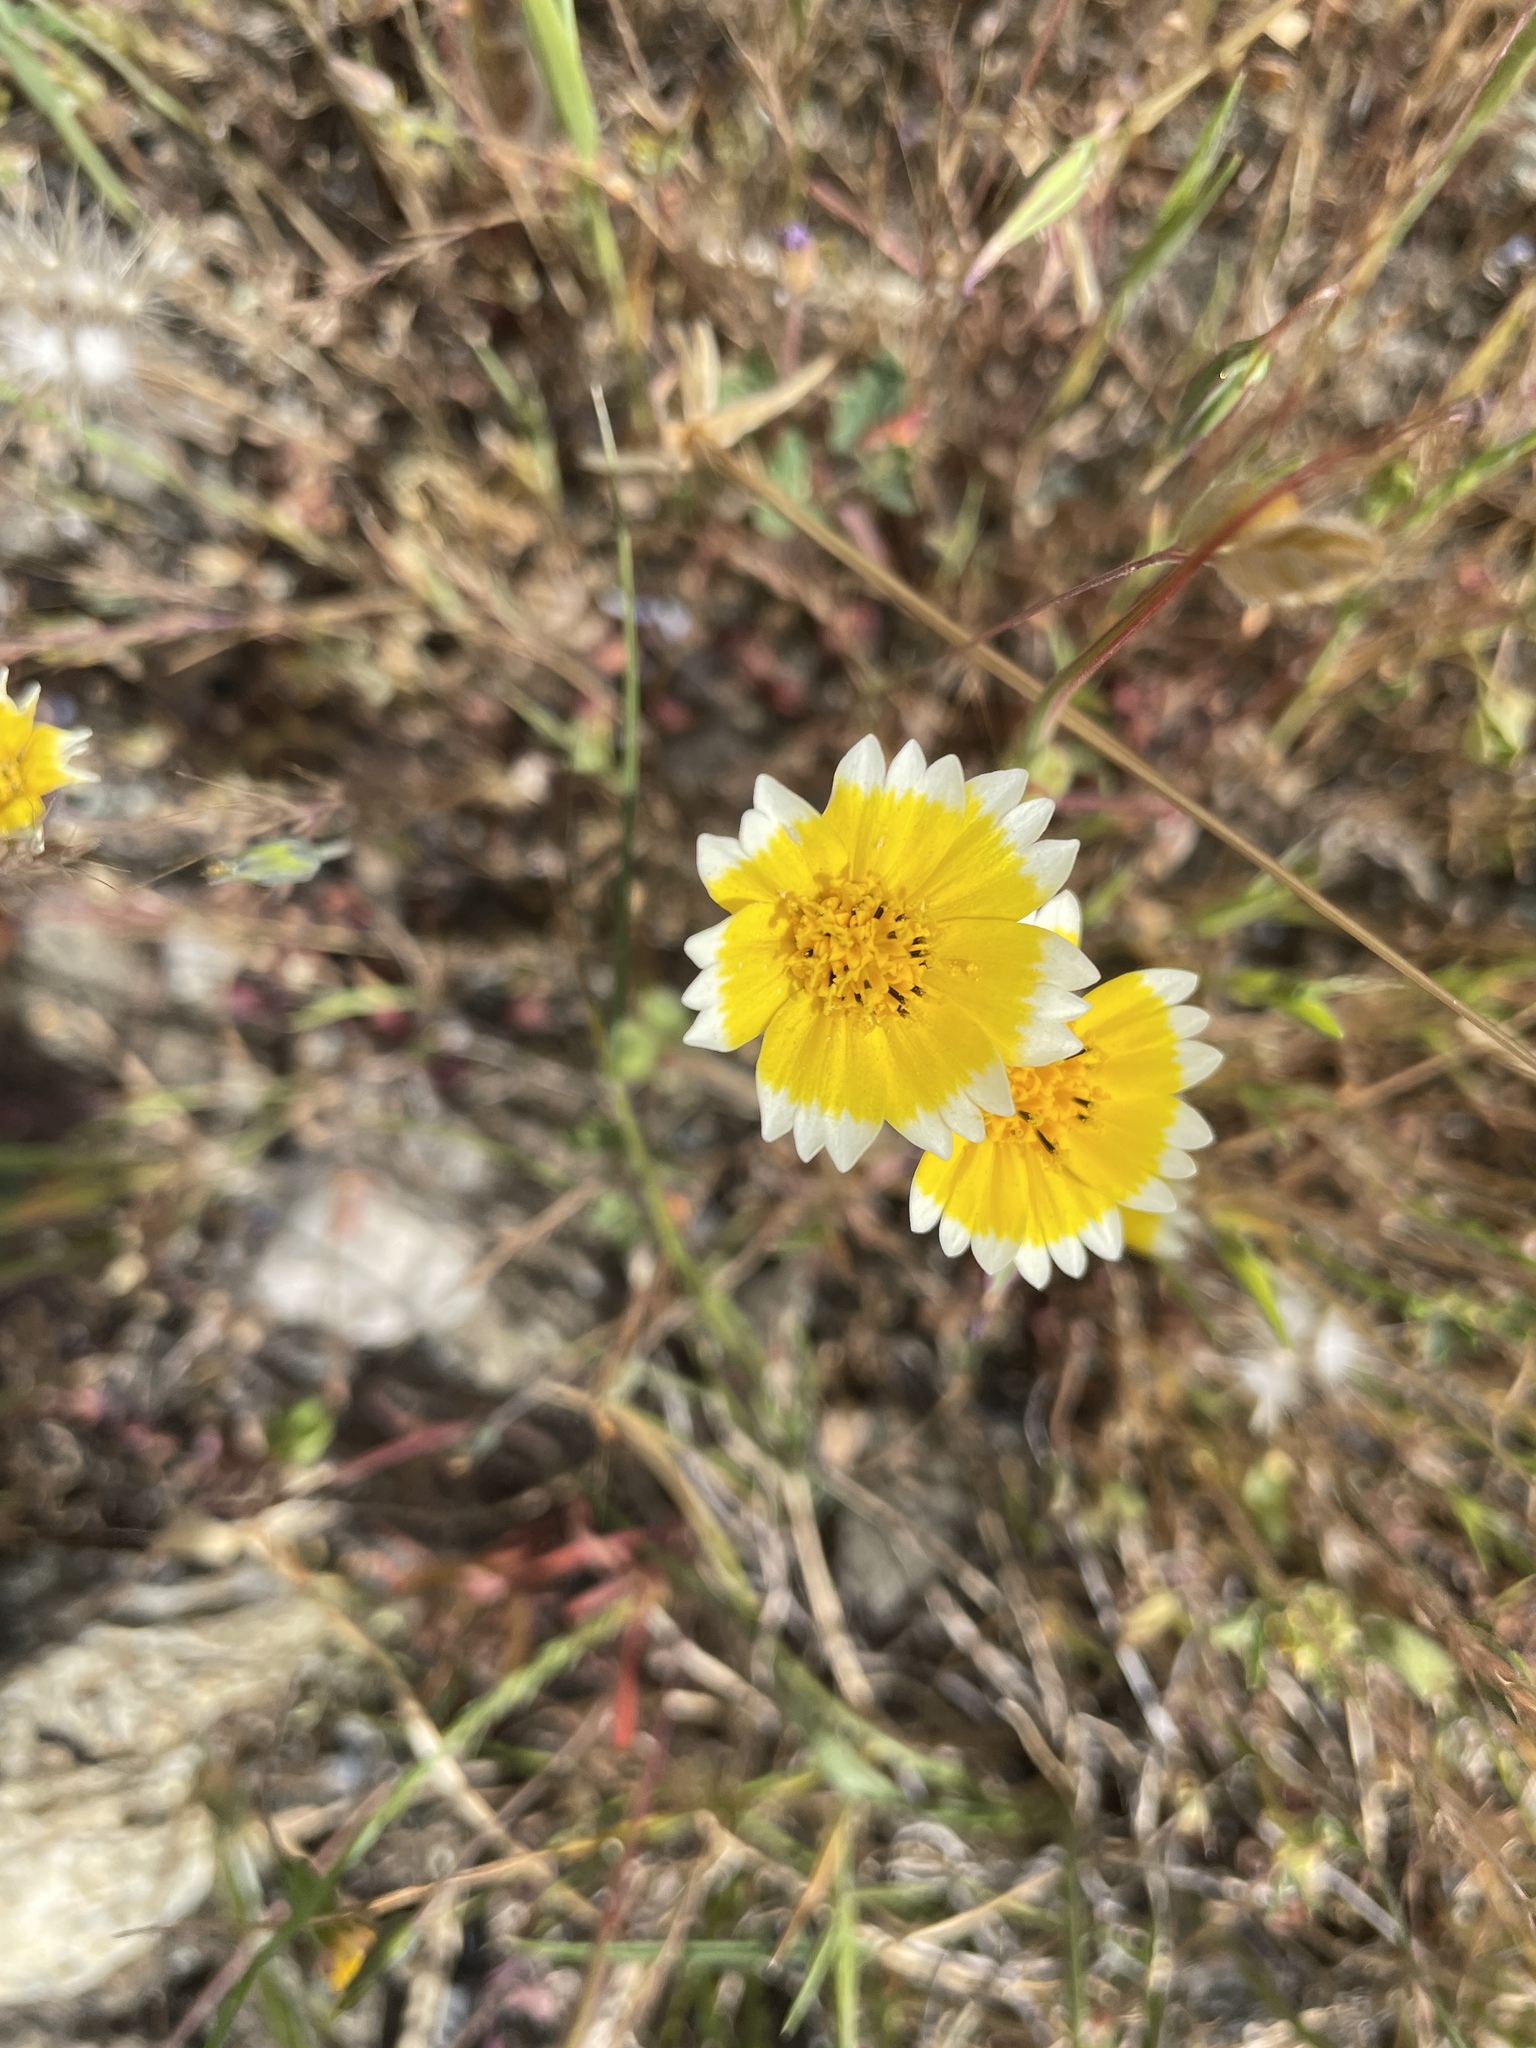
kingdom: Plantae
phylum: Tracheophyta
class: Magnoliopsida
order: Asterales
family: Asteraceae
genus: Layia
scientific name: Layia platyglossa
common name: Tidy-tips
